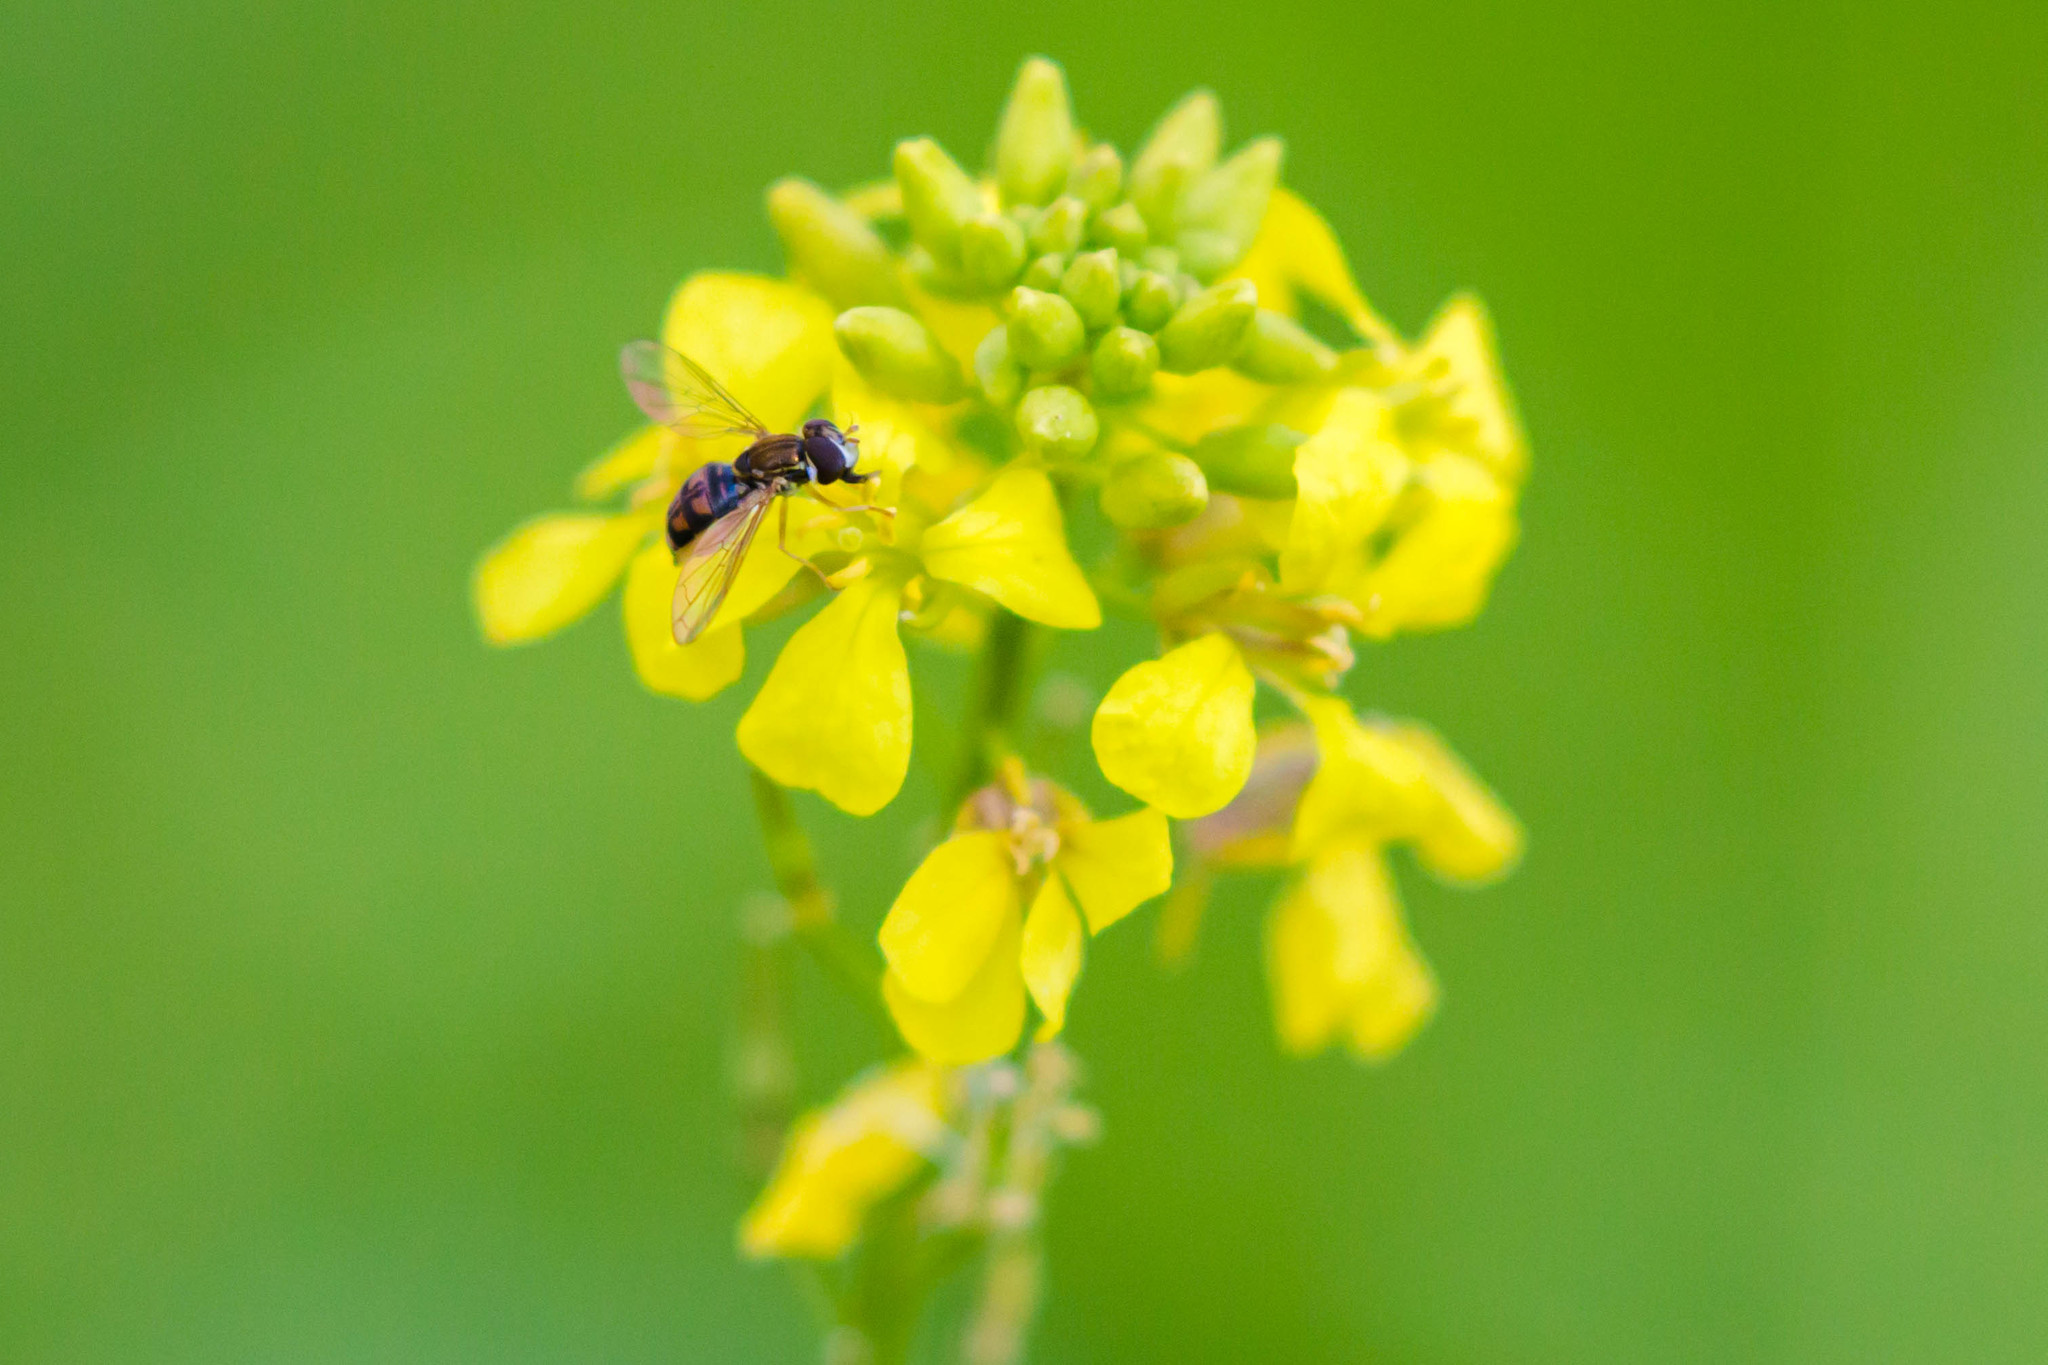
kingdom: Animalia
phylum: Arthropoda
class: Insecta
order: Diptera
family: Syrphidae
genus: Toxomerus
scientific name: Toxomerus marginatus
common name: Syrphid fly
